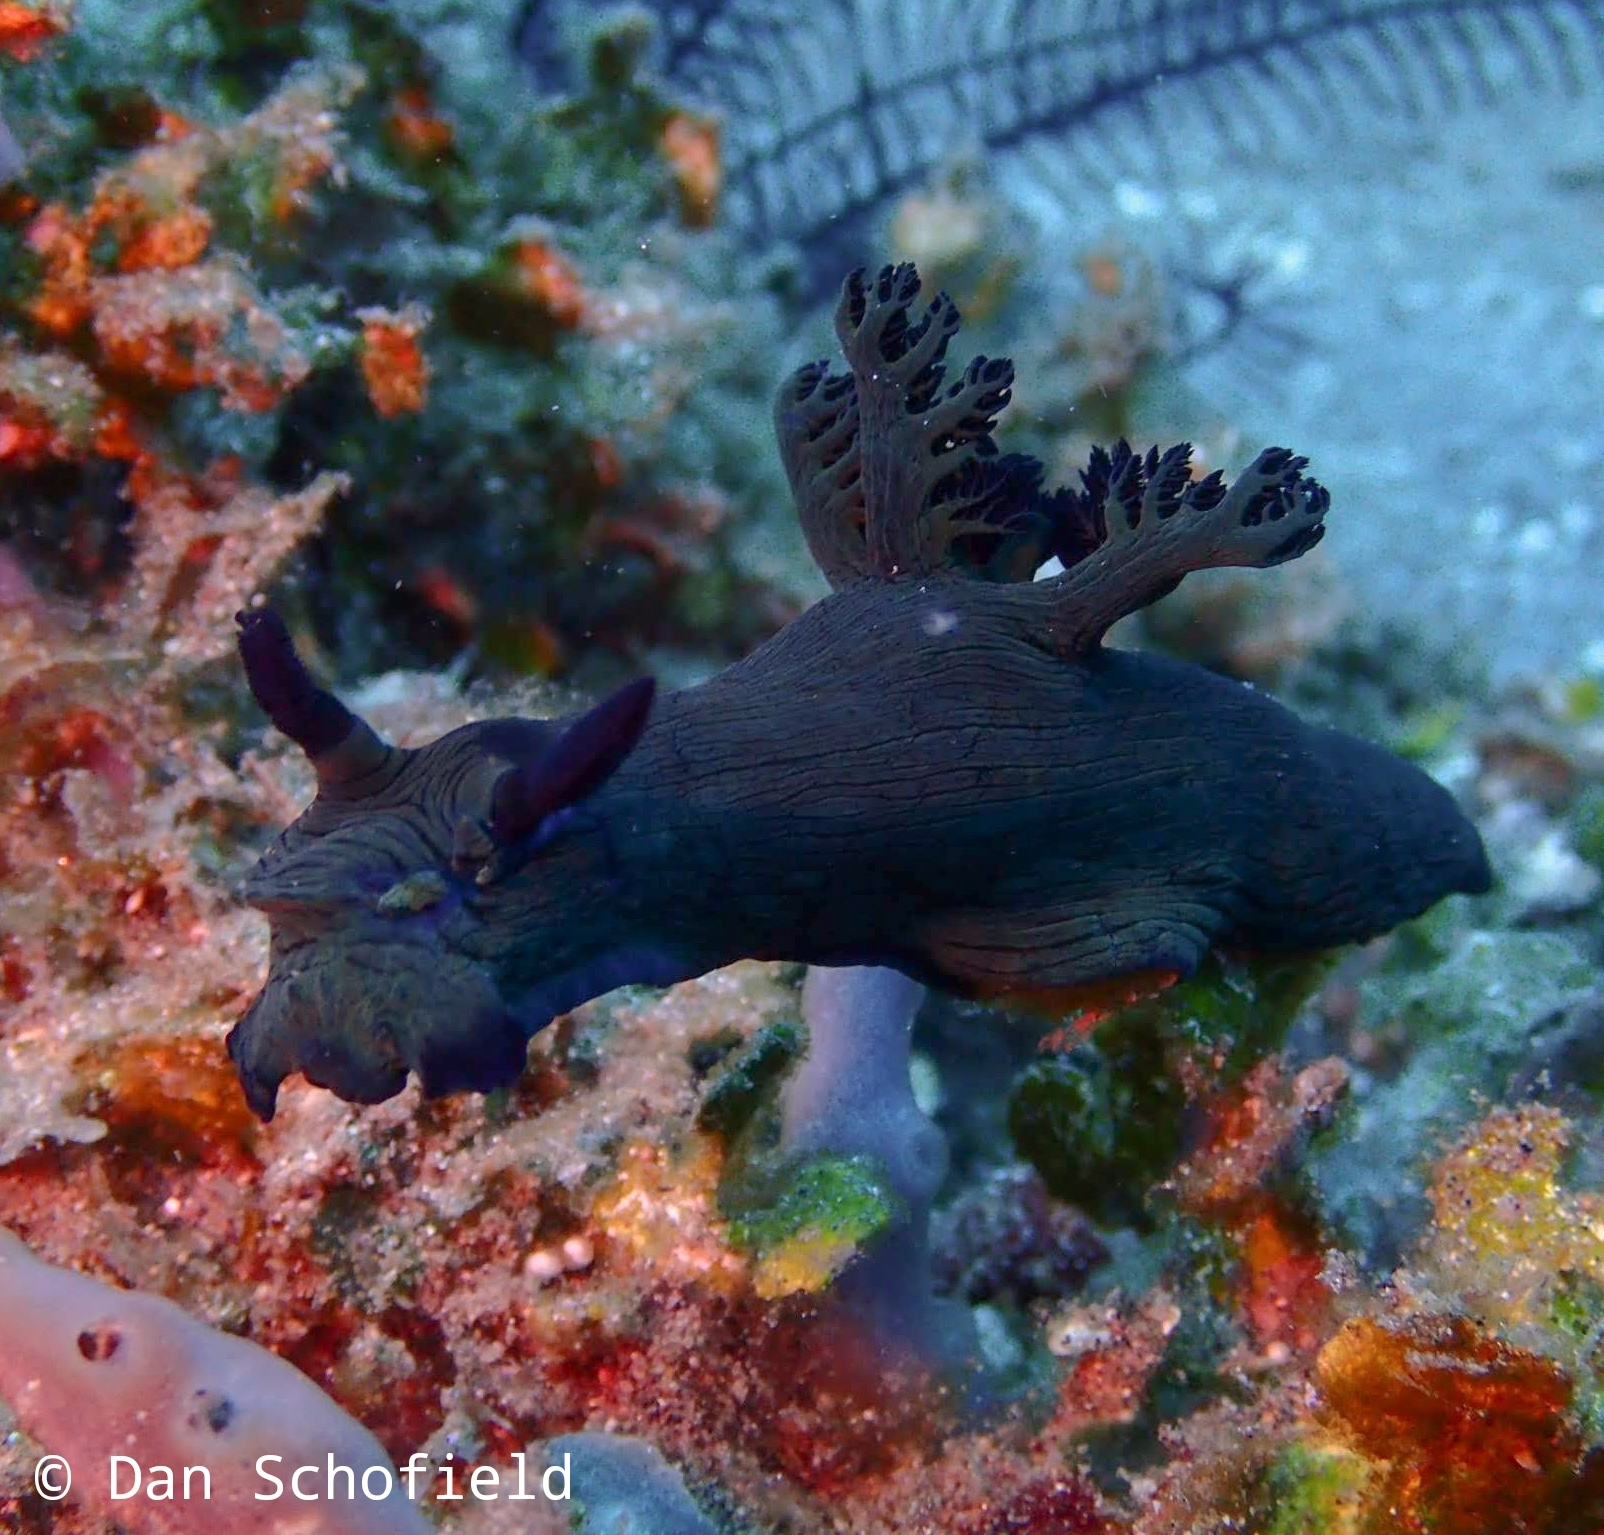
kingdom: Animalia
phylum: Mollusca
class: Gastropoda
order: Nudibranchia
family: Polyceridae
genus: Nembrotha
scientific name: Nembrotha milleri
